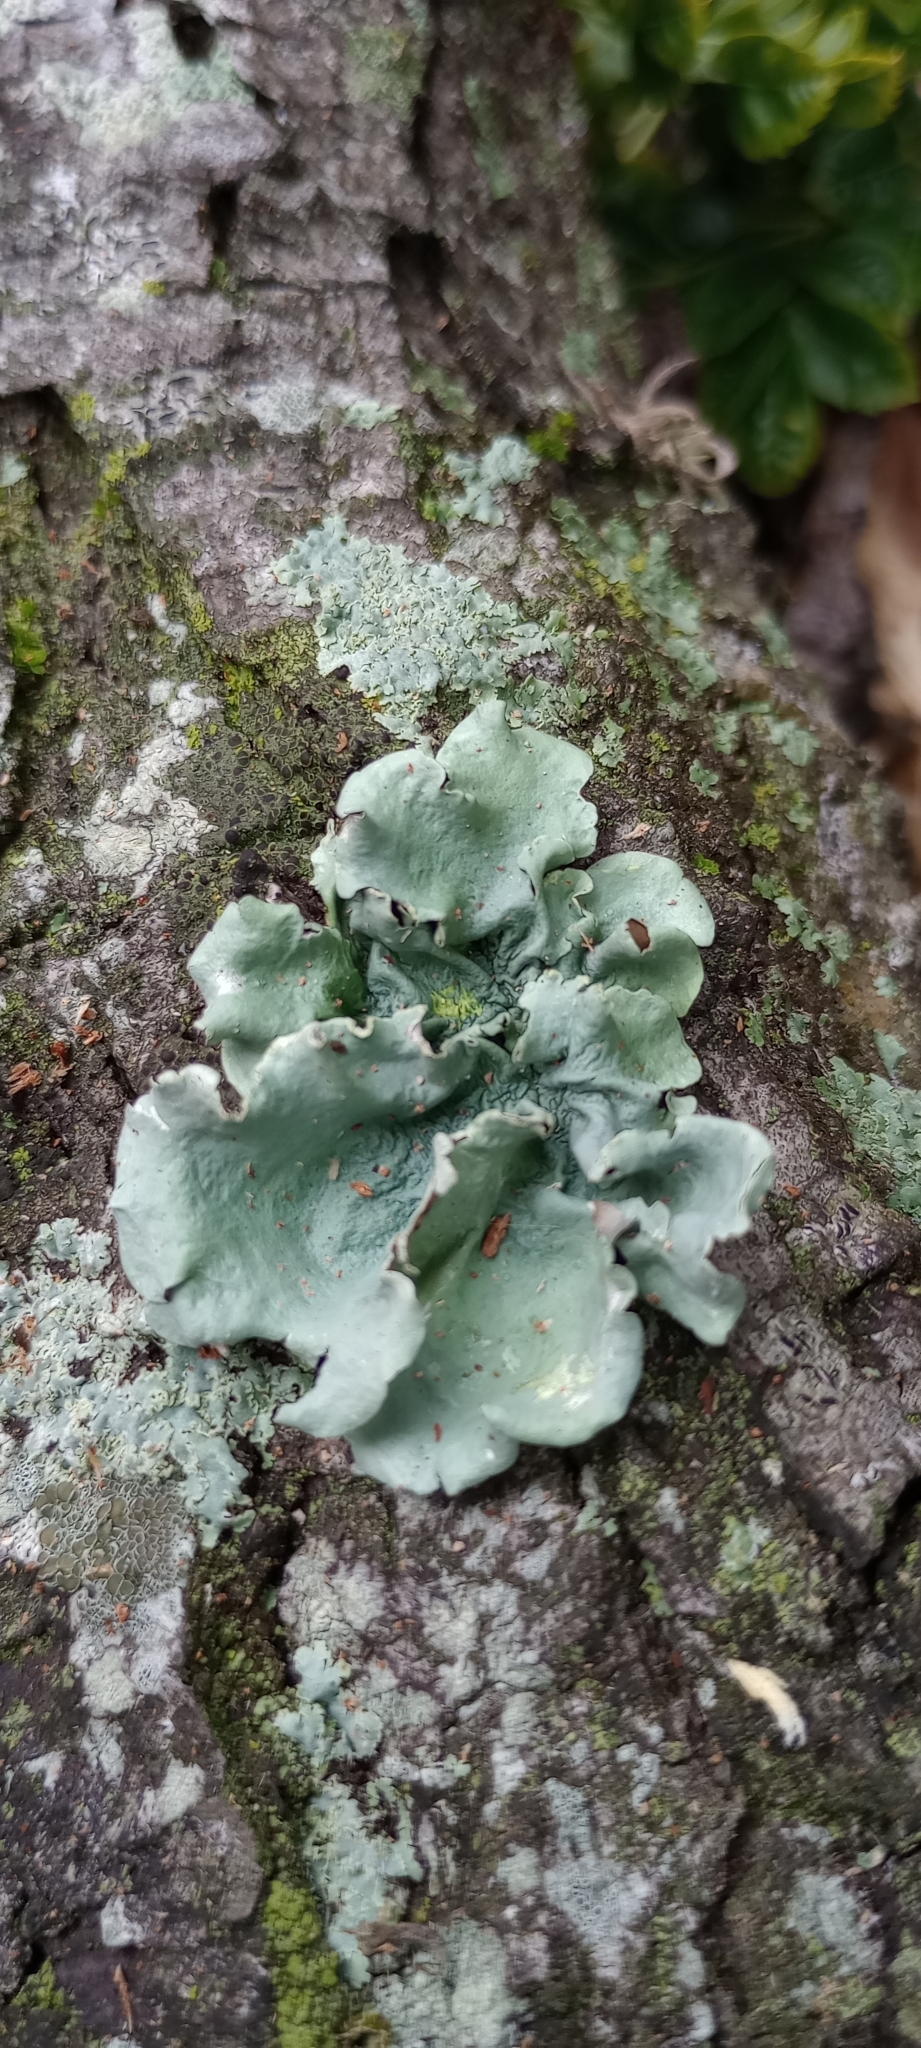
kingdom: Fungi
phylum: Ascomycota
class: Lecanoromycetes
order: Lecanorales
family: Parmeliaceae
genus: Flavoparmelia
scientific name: Flavoparmelia caperata
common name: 40-mile per hour lichen
